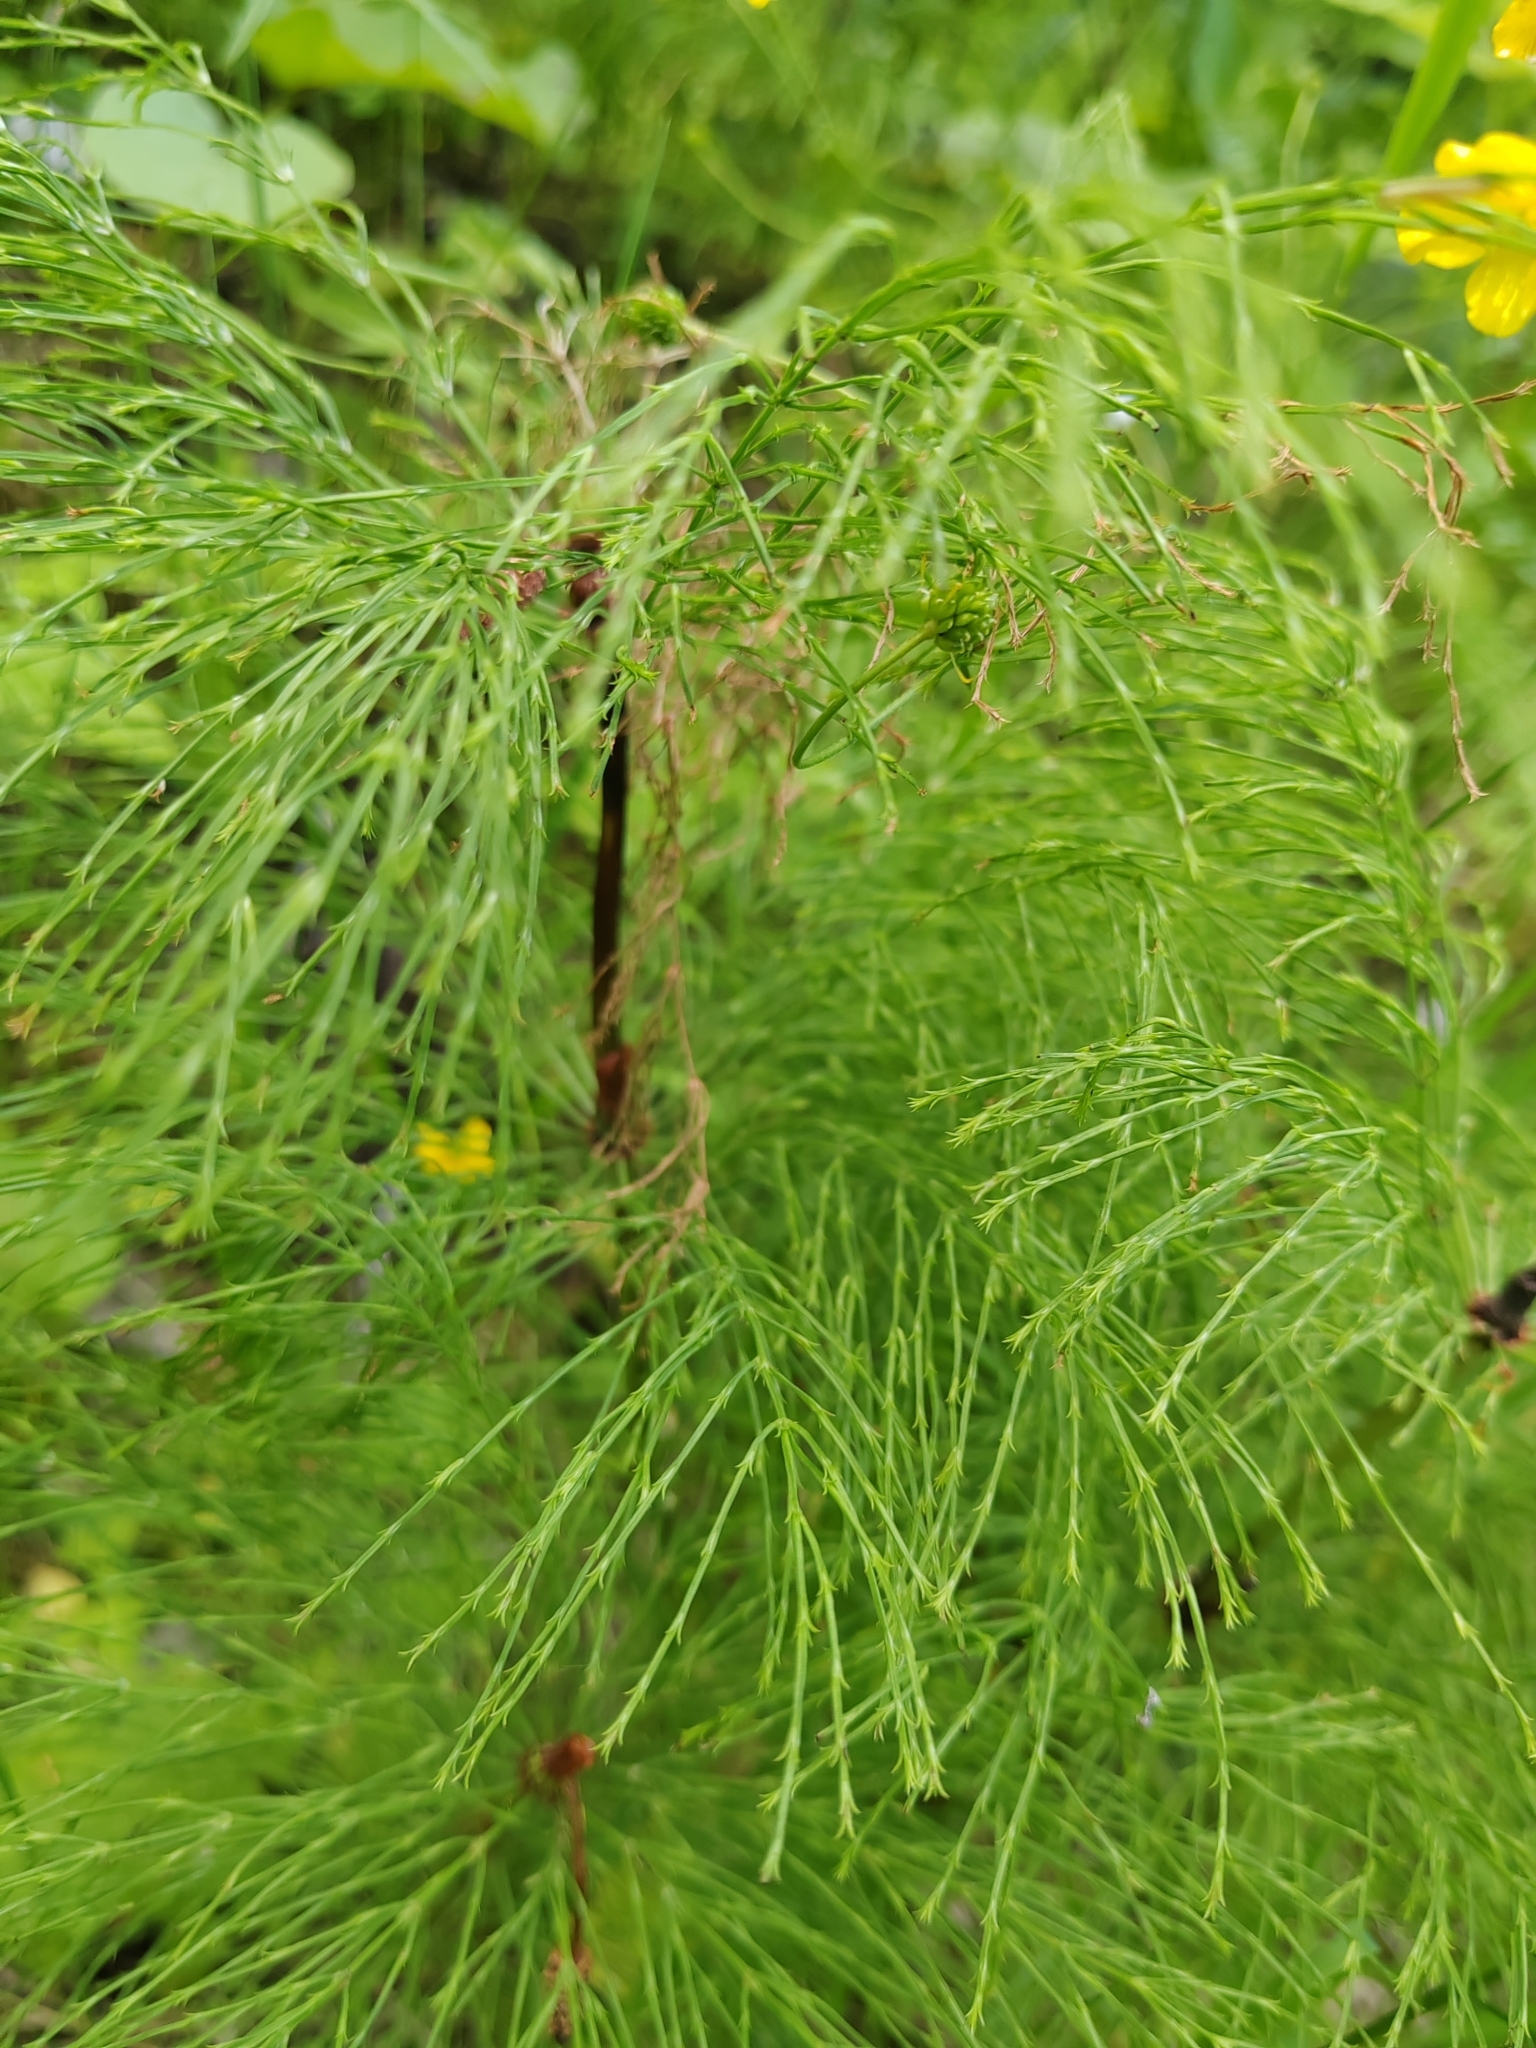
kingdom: Plantae
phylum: Tracheophyta
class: Polypodiopsida
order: Equisetales
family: Equisetaceae
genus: Equisetum
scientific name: Equisetum sylvaticum
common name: Wood horsetail
